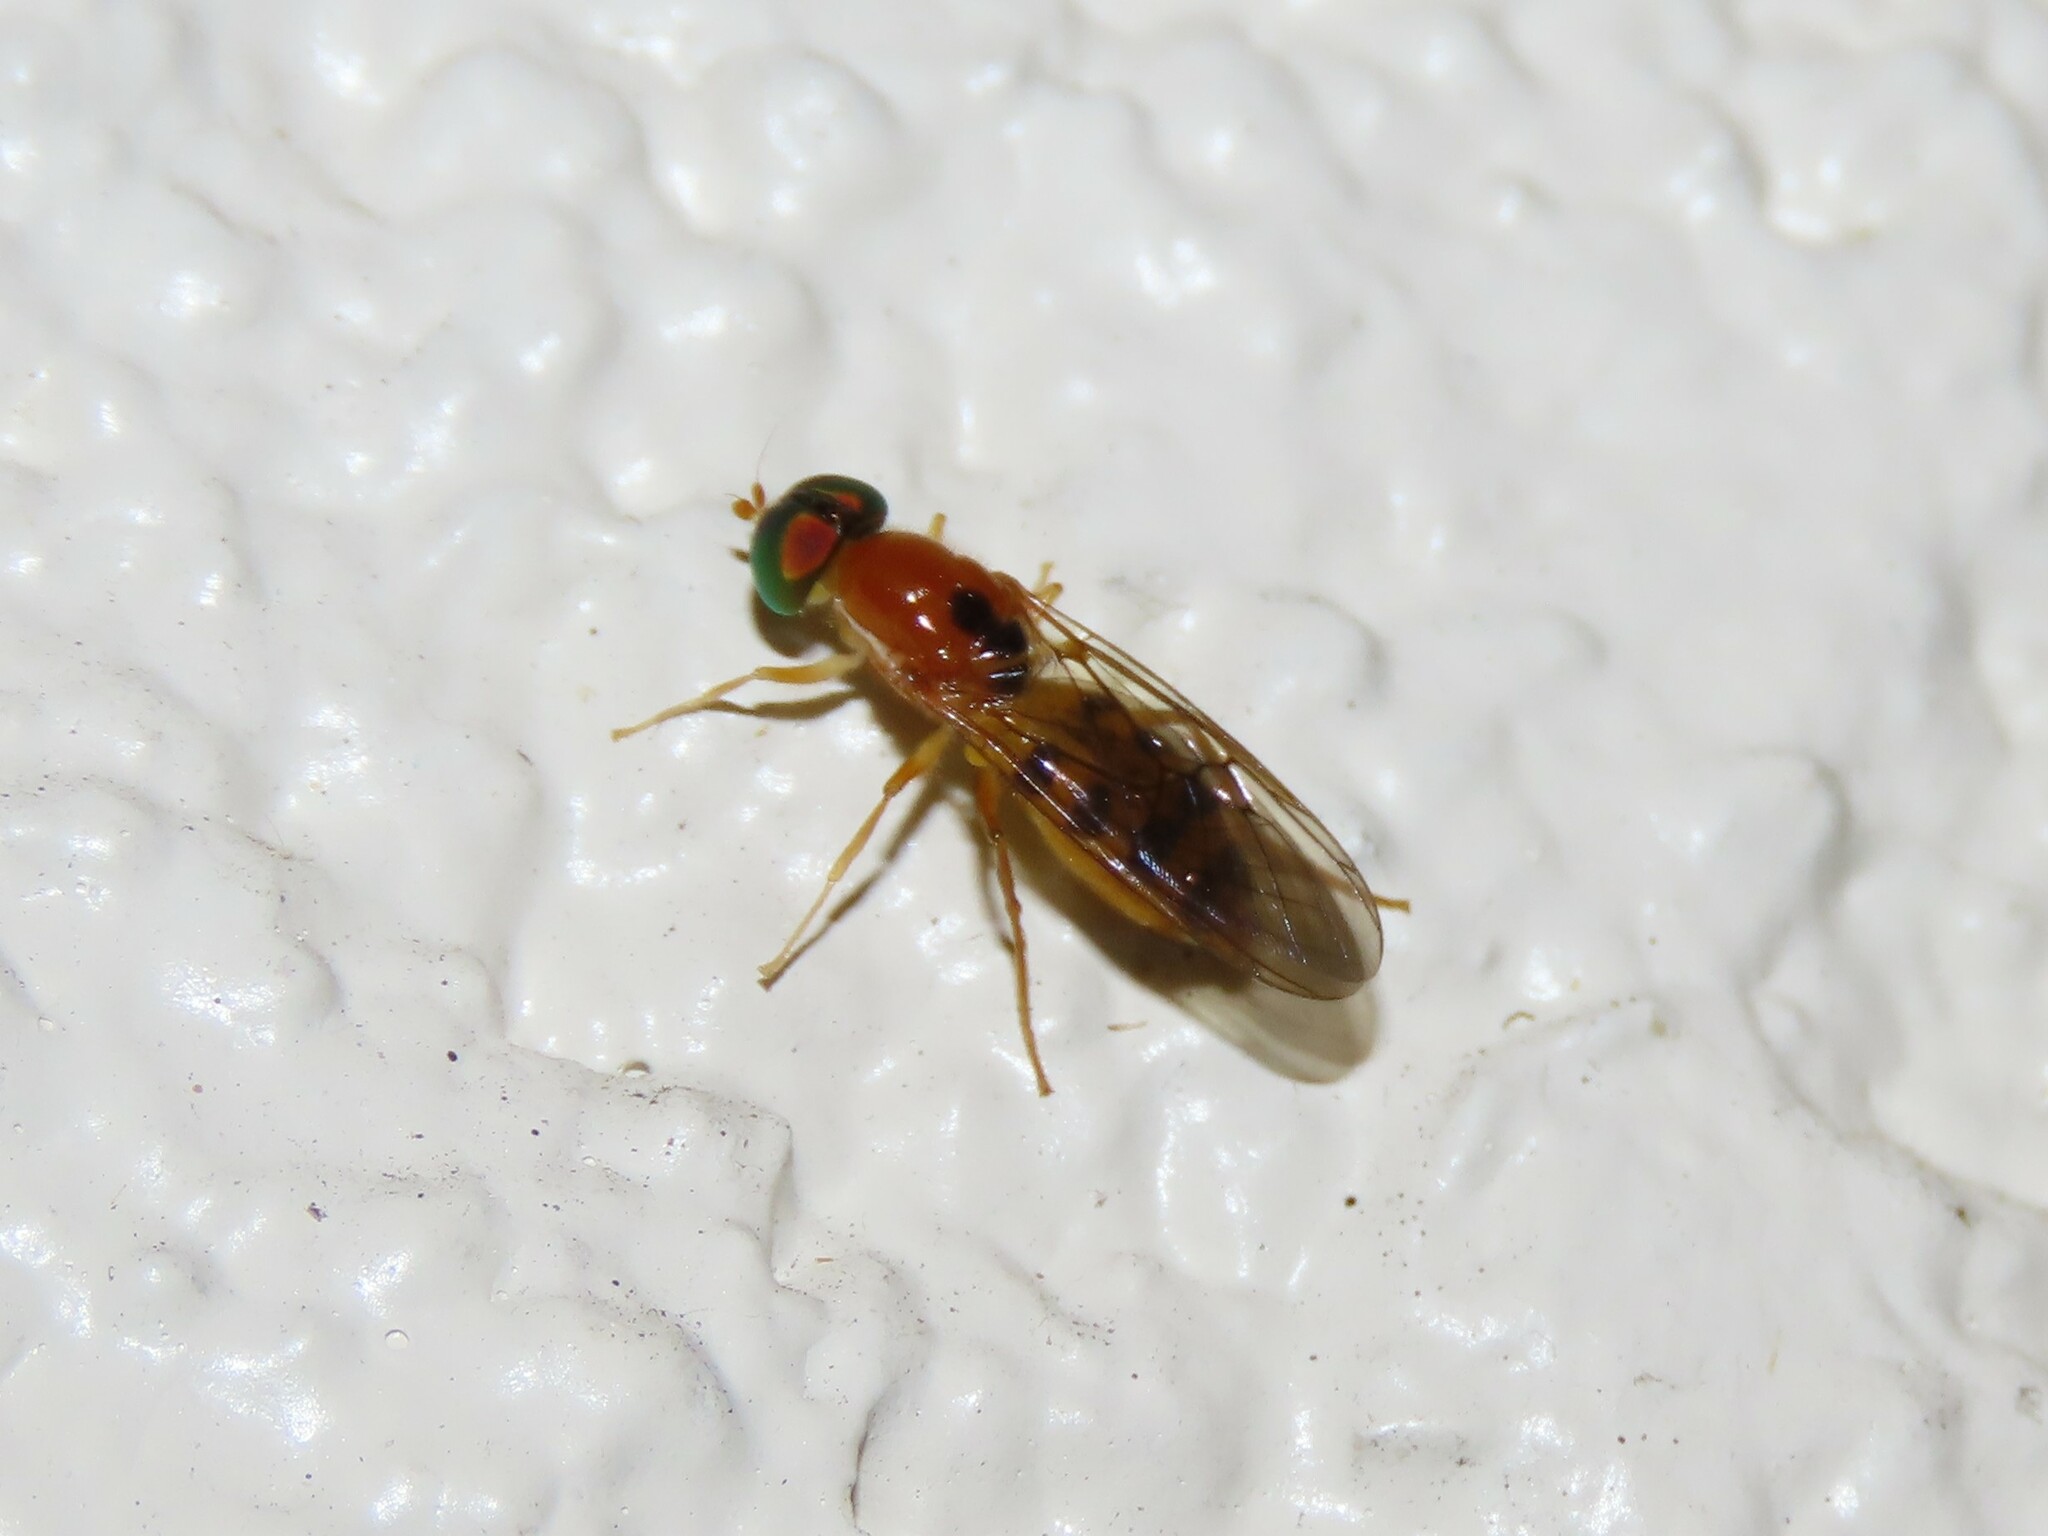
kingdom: Animalia
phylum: Arthropoda
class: Insecta
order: Diptera
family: Stratiomyidae
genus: Sargus
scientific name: Sargus elegans
